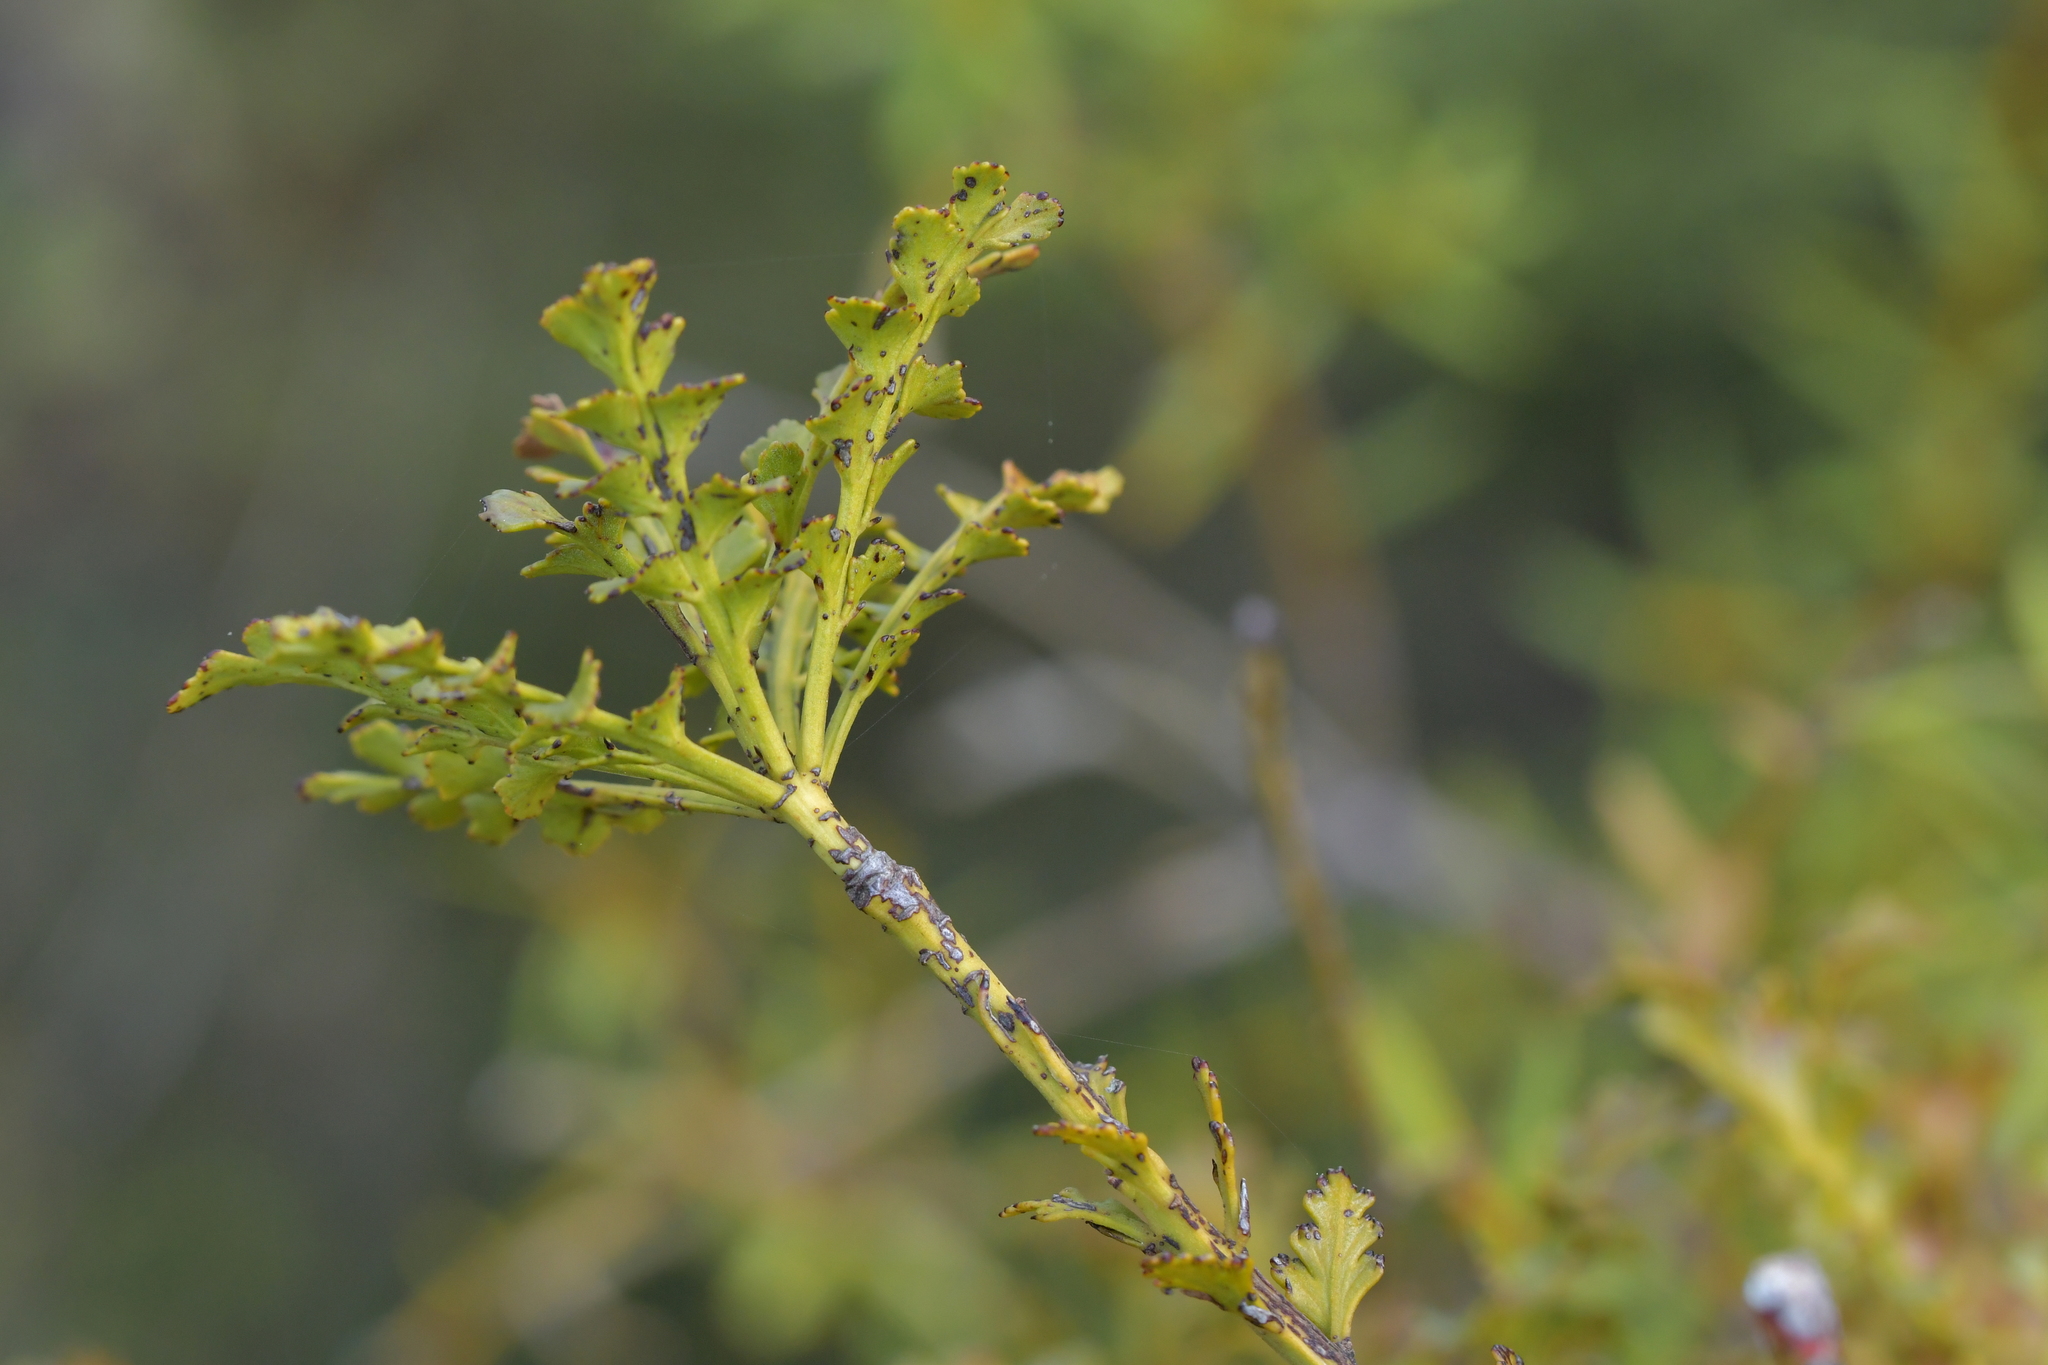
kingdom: Plantae
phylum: Tracheophyta
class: Pinopsida
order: Pinales
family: Phyllocladaceae
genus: Phyllocladus
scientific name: Phyllocladus trichomanoides
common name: Celery pine
